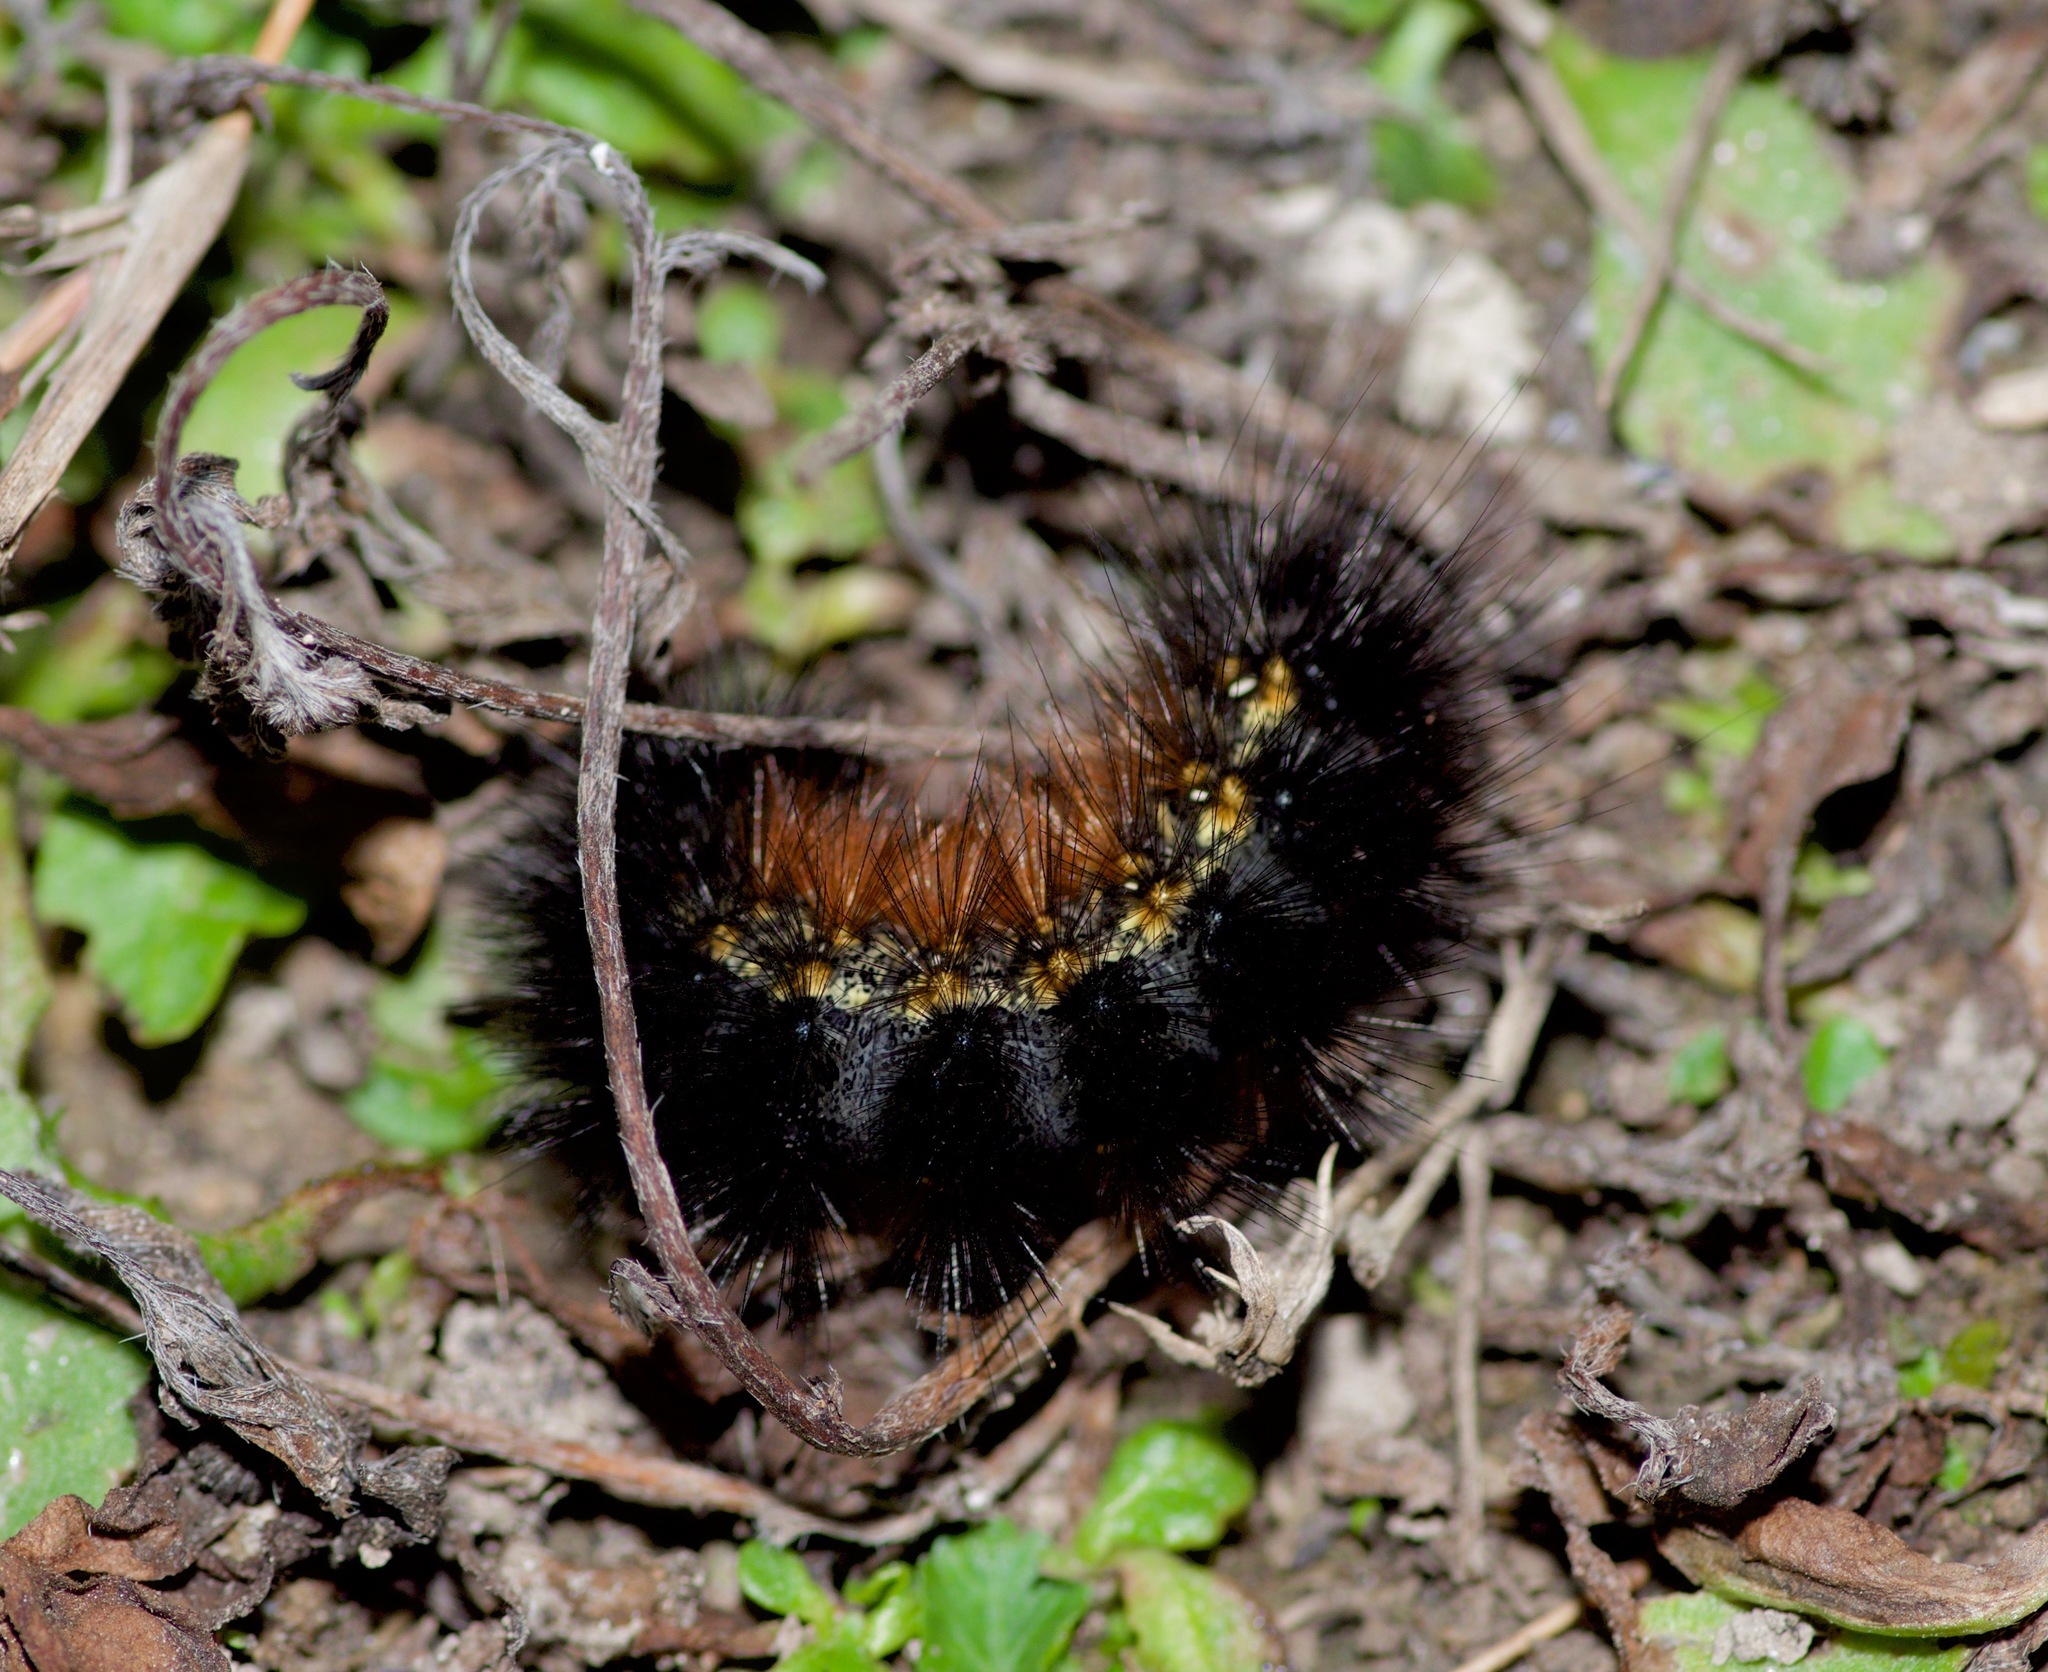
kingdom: Animalia
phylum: Arthropoda
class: Insecta
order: Lepidoptera
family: Erebidae
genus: Estigmene
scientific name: Estigmene acrea
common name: Salt marsh moth
